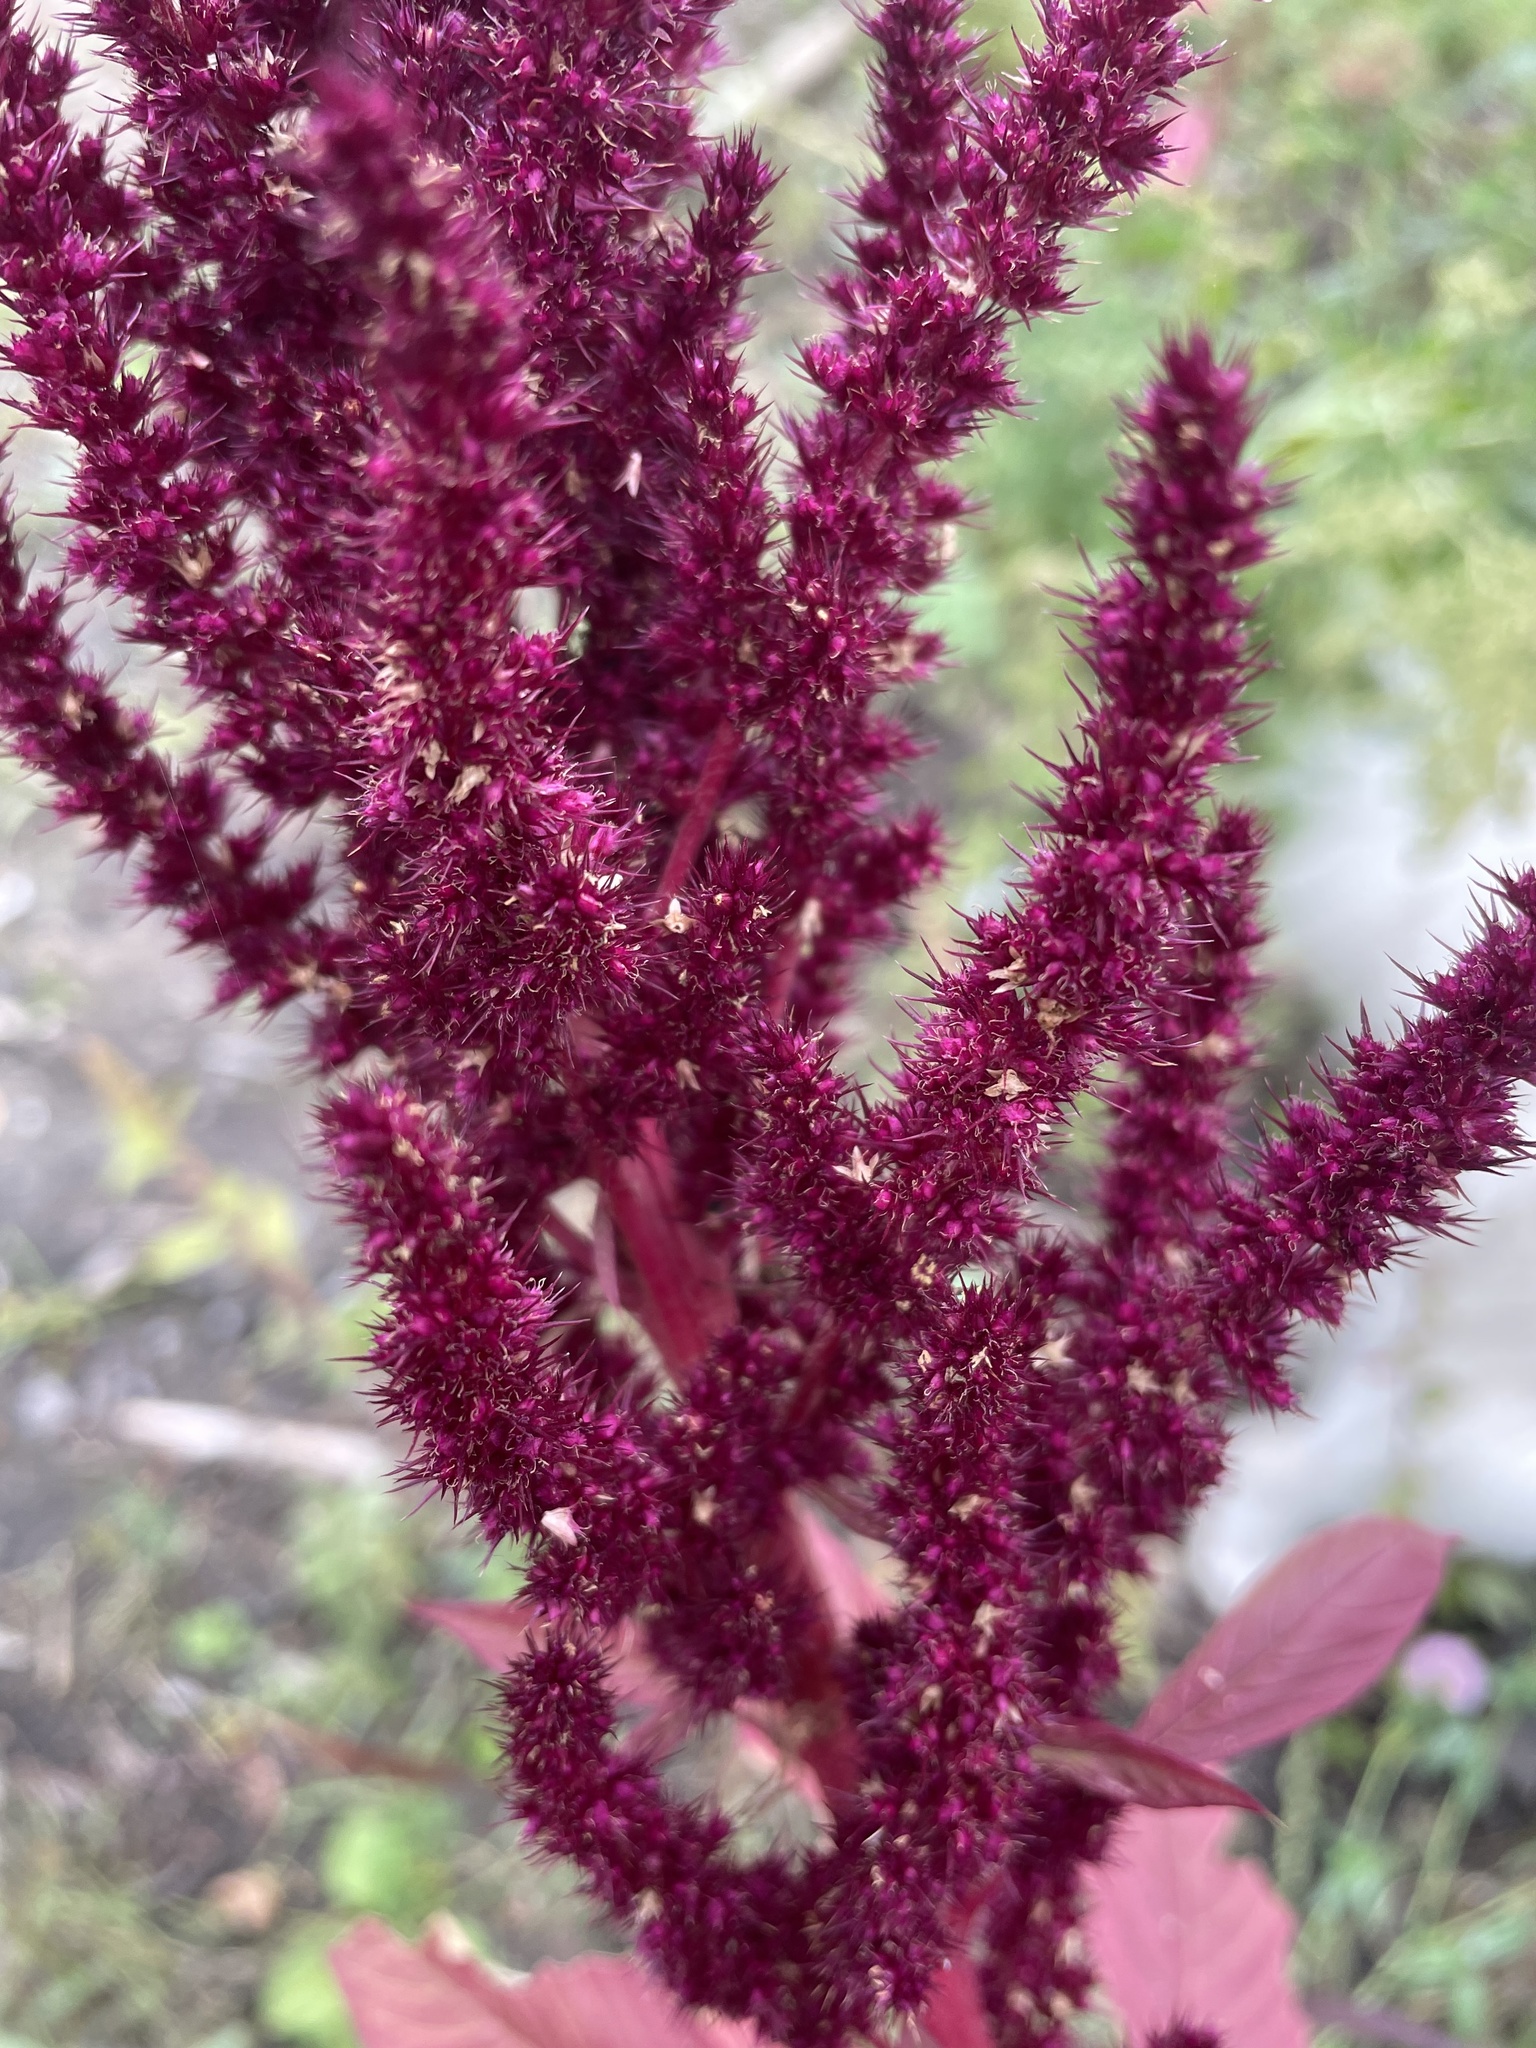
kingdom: Plantae
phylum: Tracheophyta
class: Magnoliopsida
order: Caryophyllales
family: Amaranthaceae
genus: Amaranthus
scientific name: Amaranthus cruentus
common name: Purple amaranth
